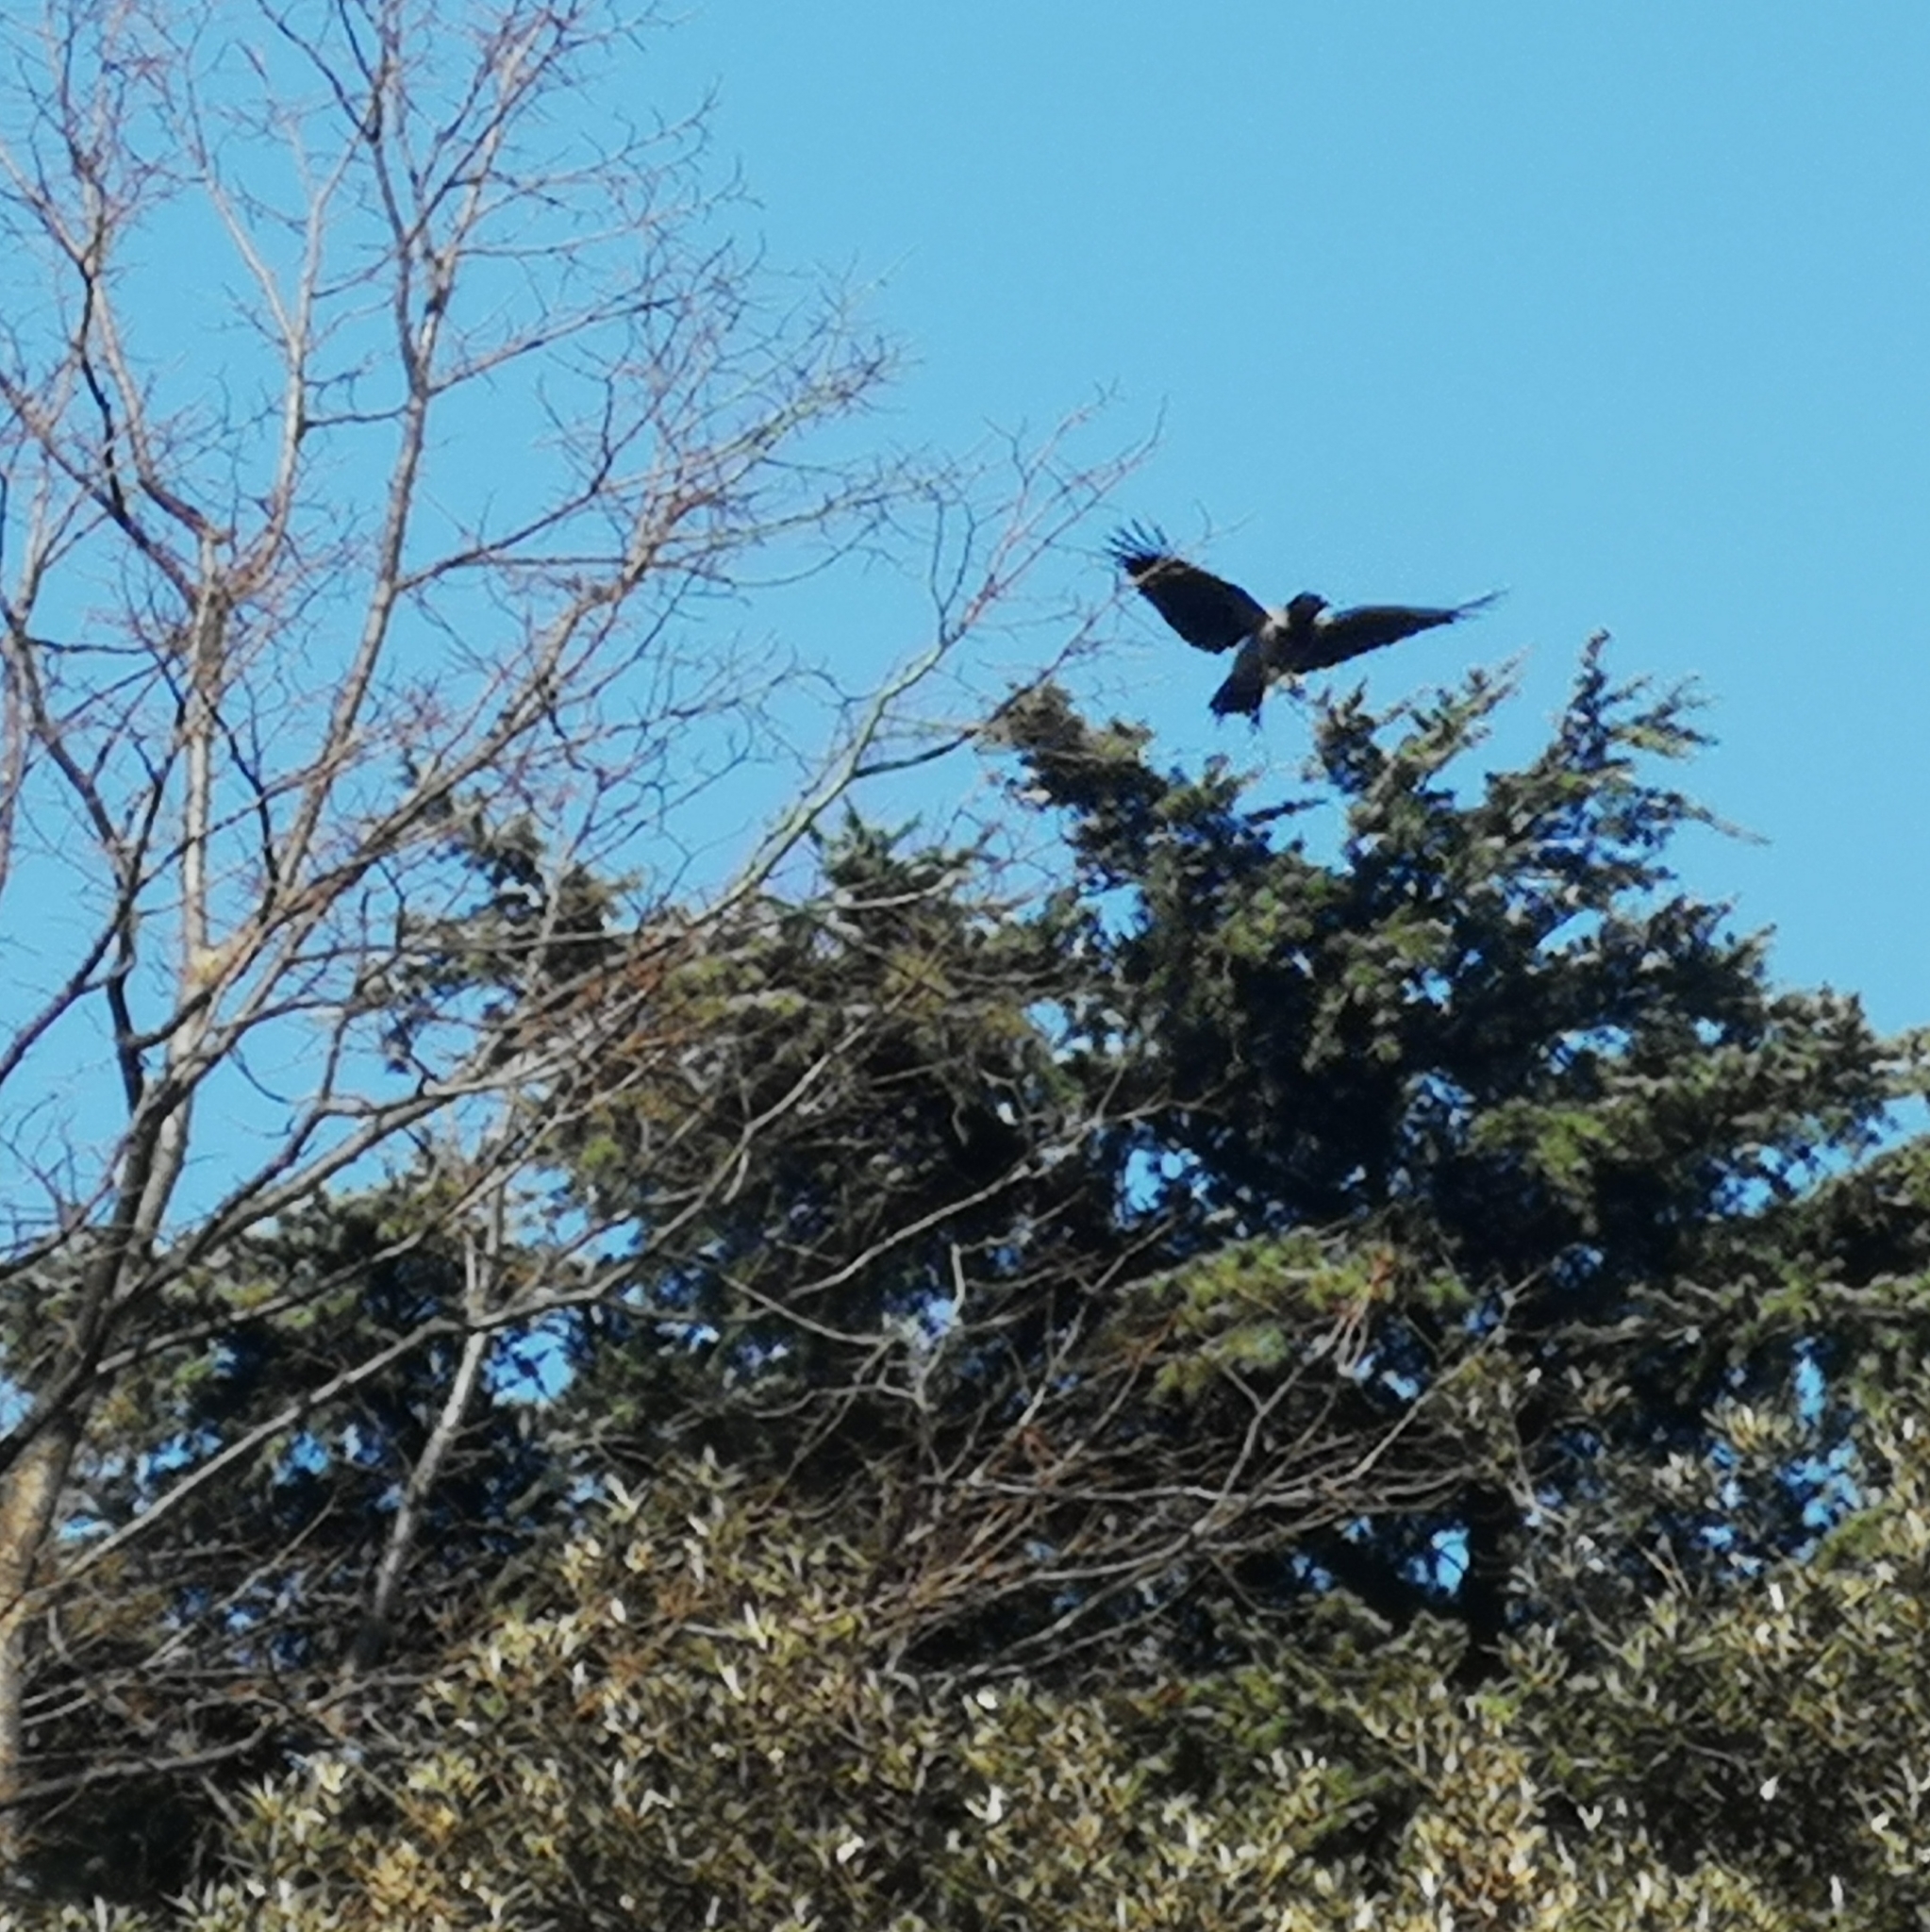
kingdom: Animalia
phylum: Chordata
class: Aves
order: Passeriformes
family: Corvidae
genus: Corvus
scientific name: Corvus cornix
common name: Hooded crow
